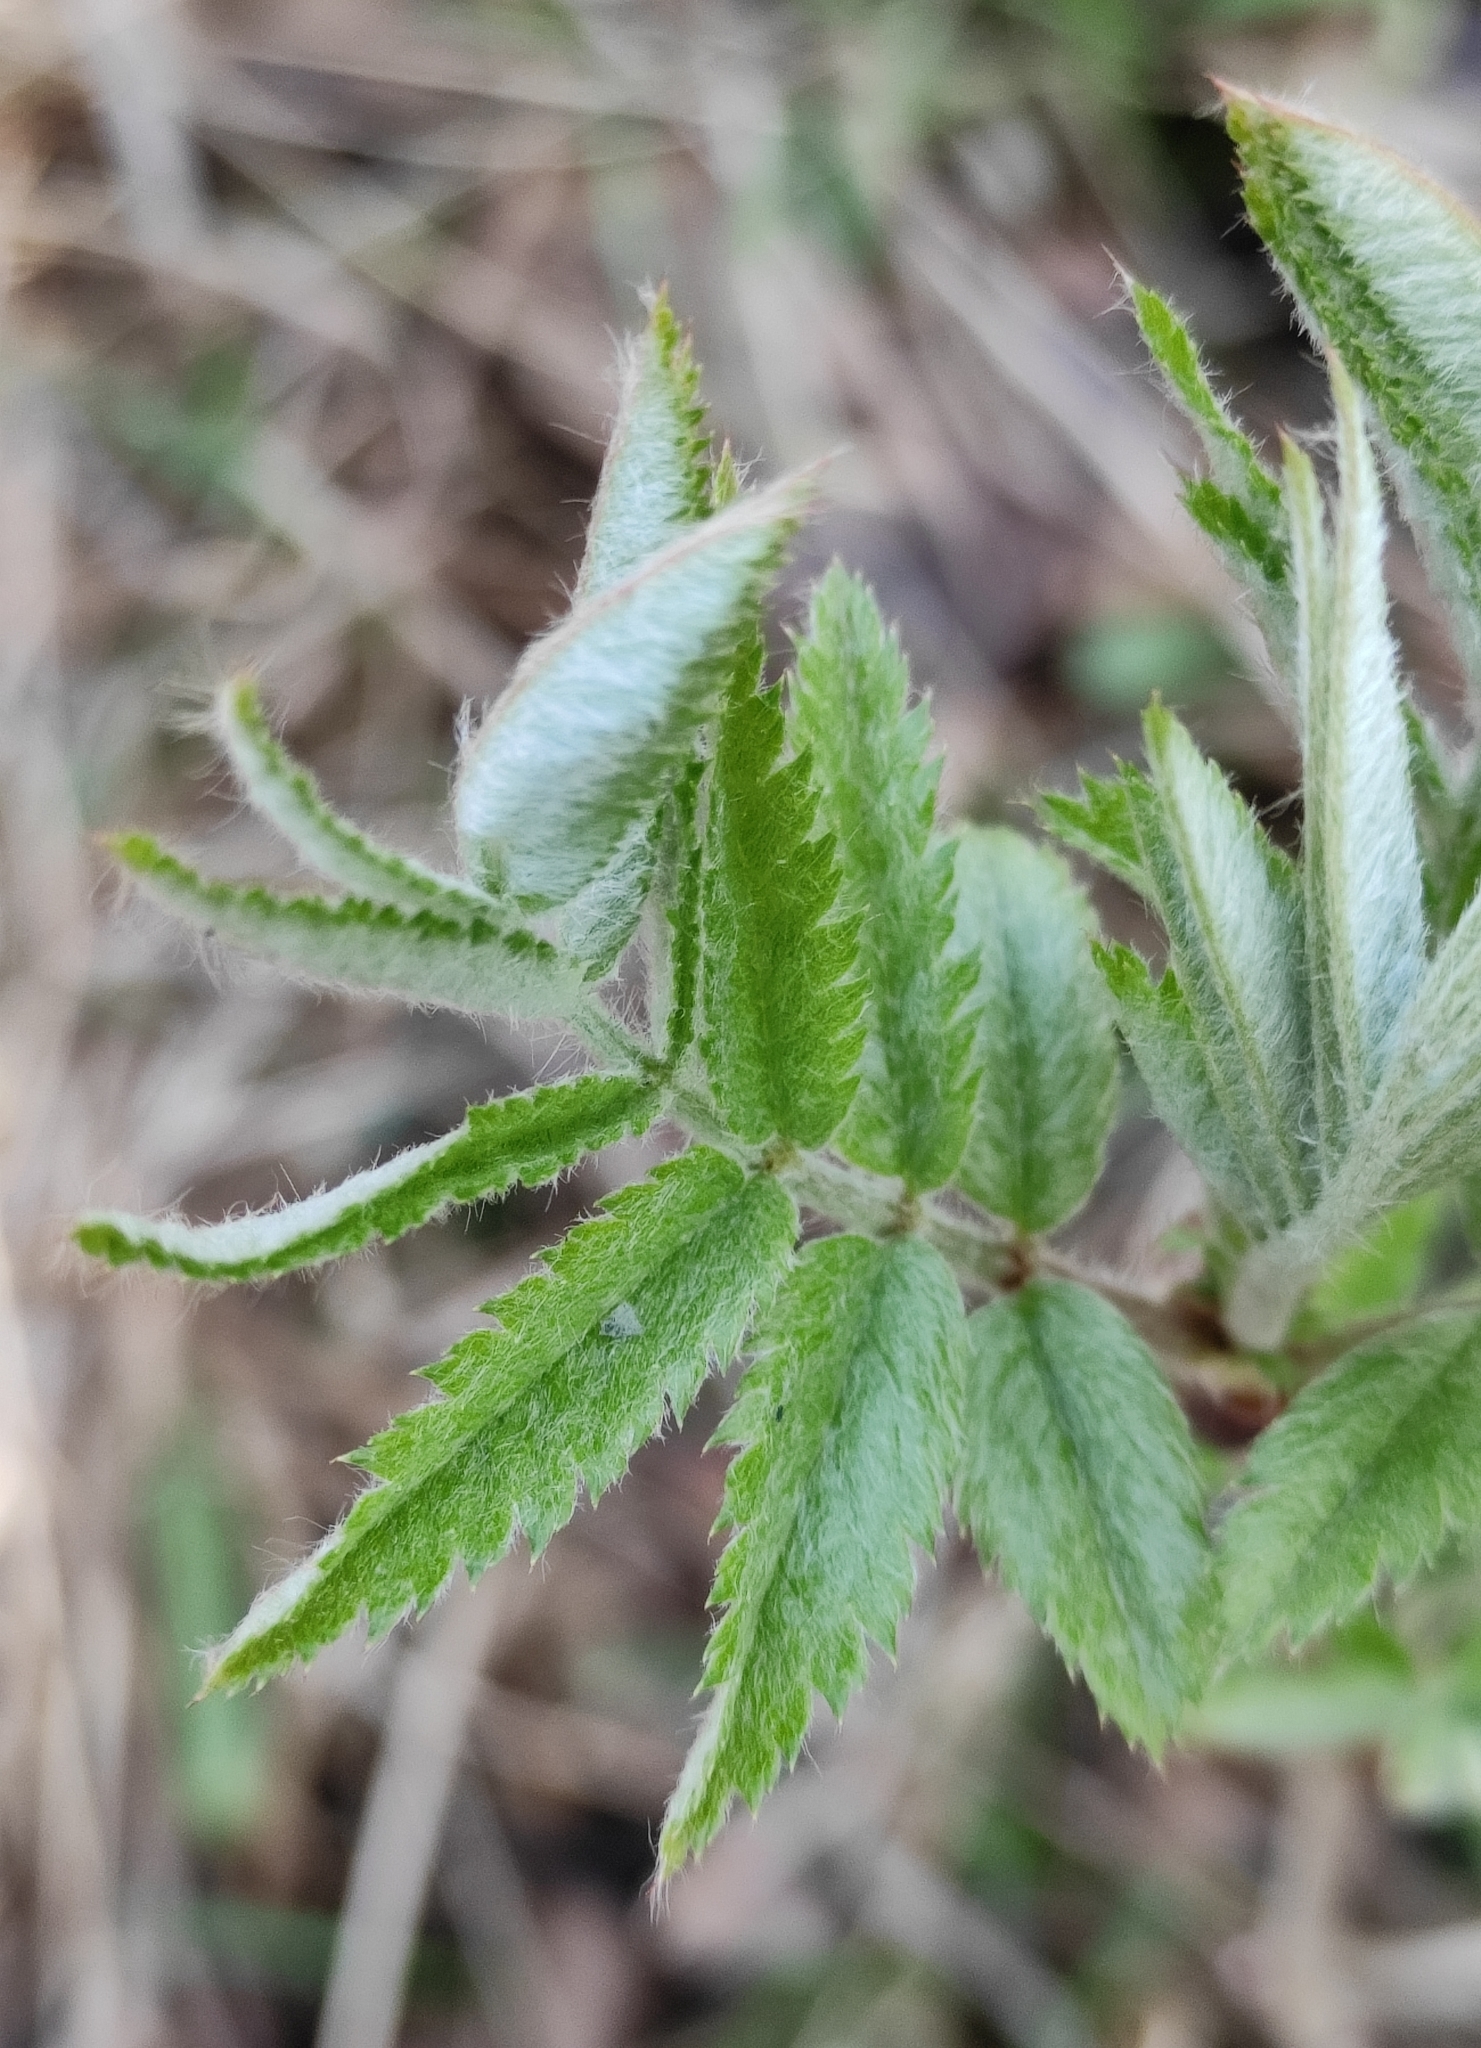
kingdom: Plantae
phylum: Tracheophyta
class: Magnoliopsida
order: Rosales
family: Rosaceae
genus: Sorbus
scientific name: Sorbus aucuparia
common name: Rowan
